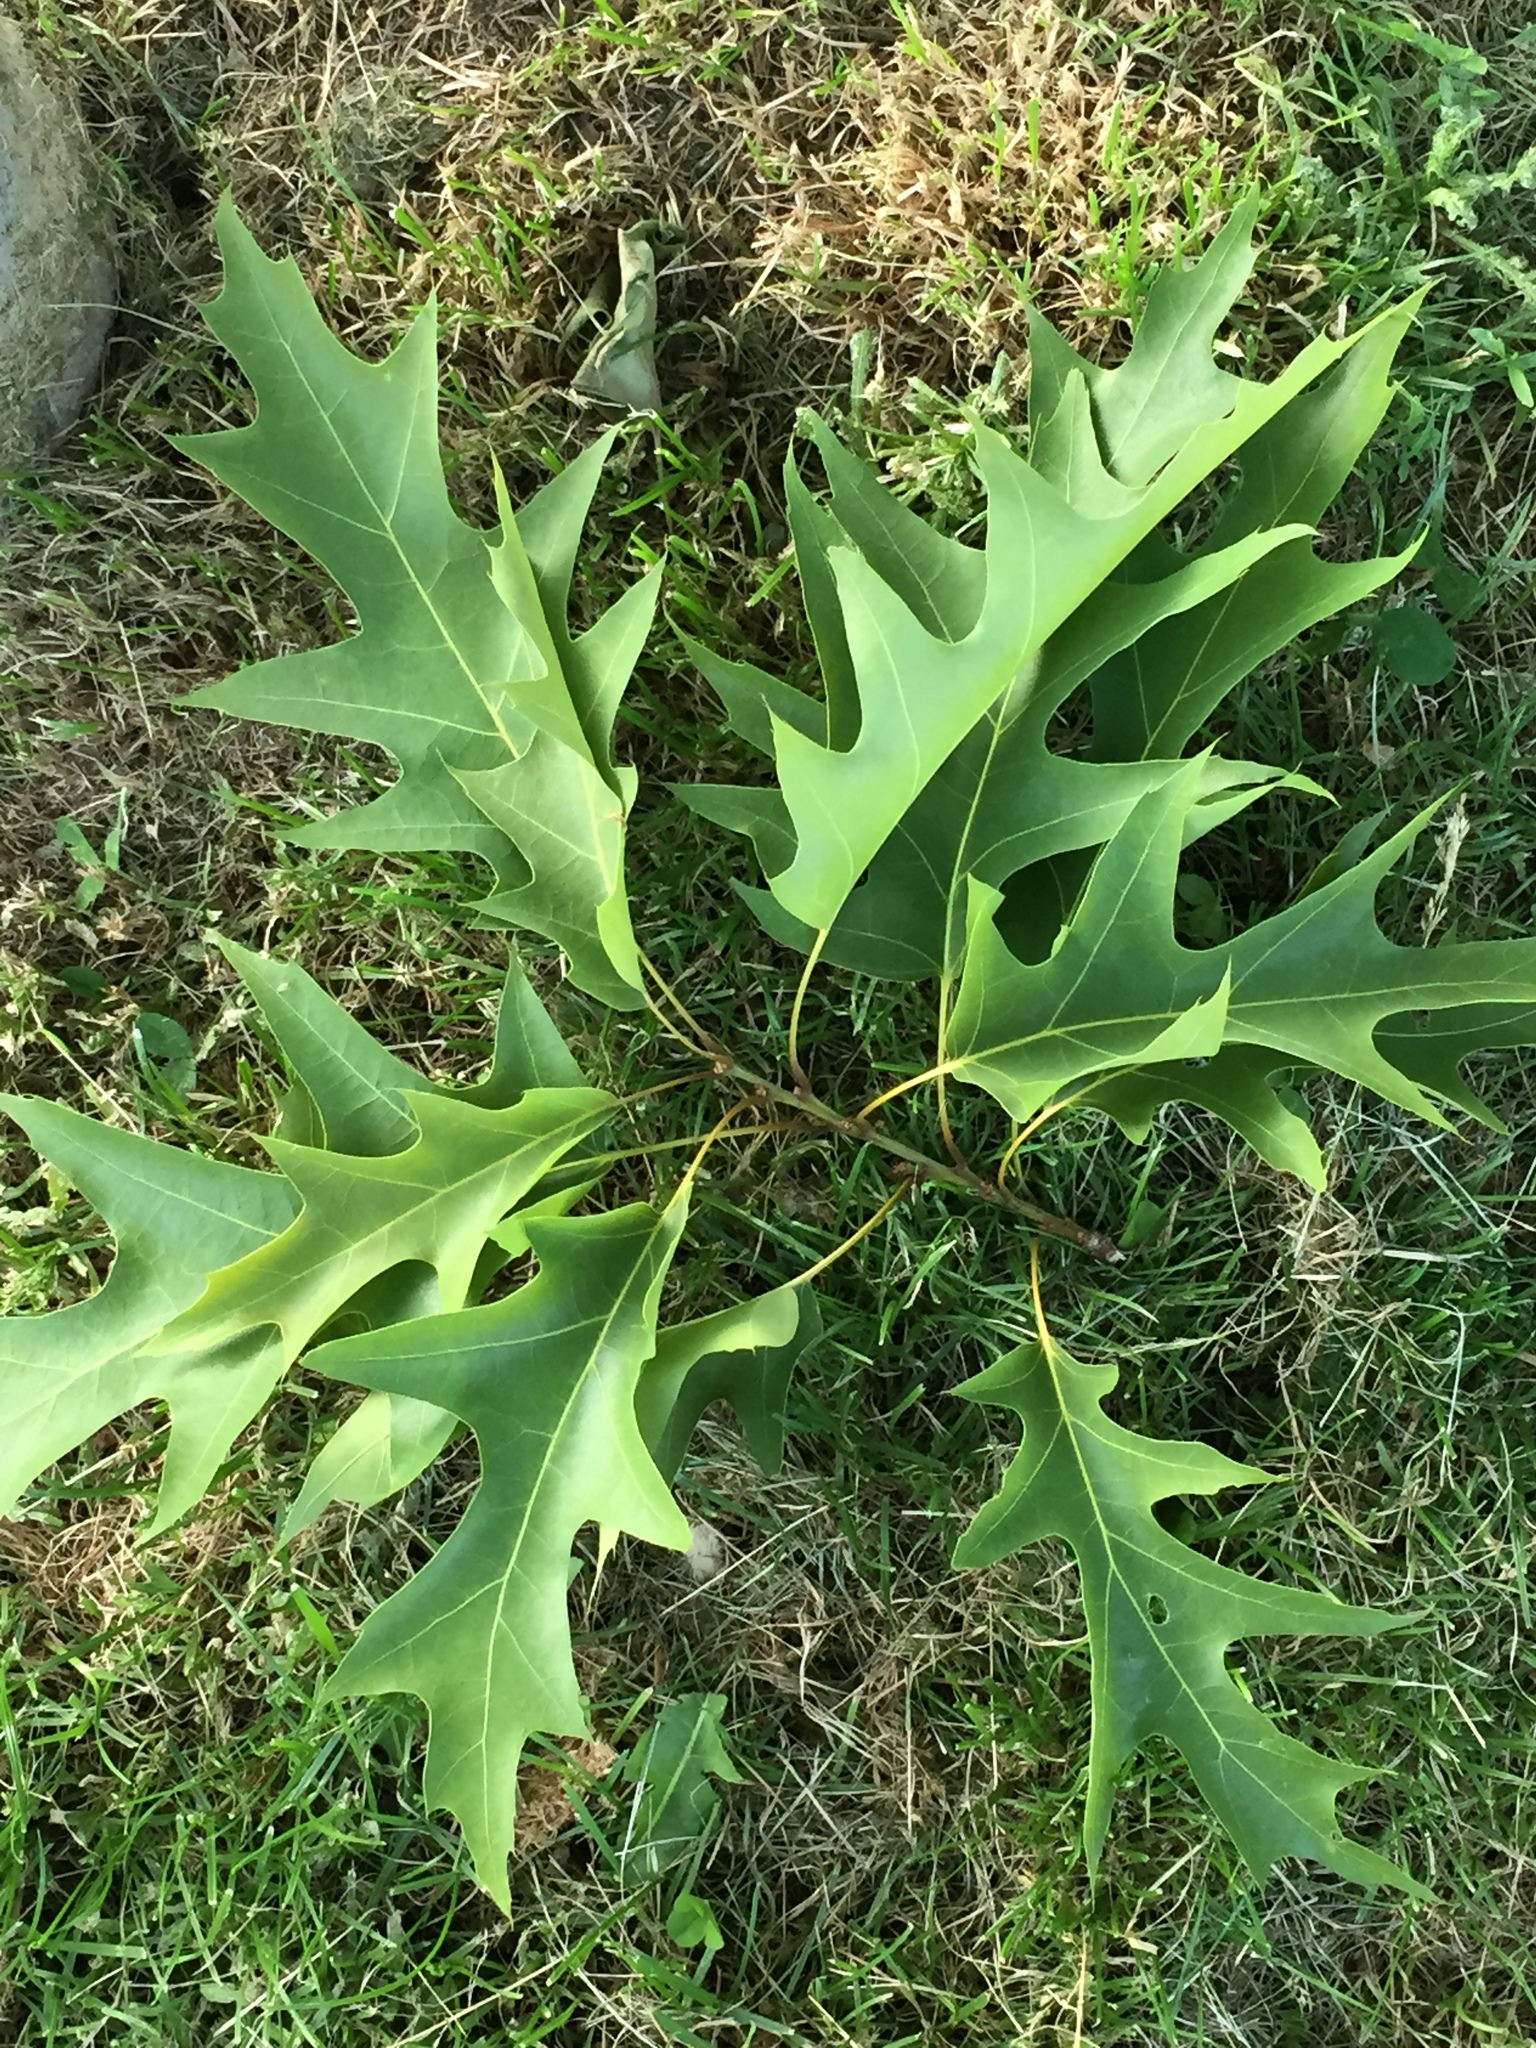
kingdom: Plantae
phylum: Tracheophyta
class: Magnoliopsida
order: Fagales
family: Fagaceae
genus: Quercus
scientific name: Quercus rubra
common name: Red oak
